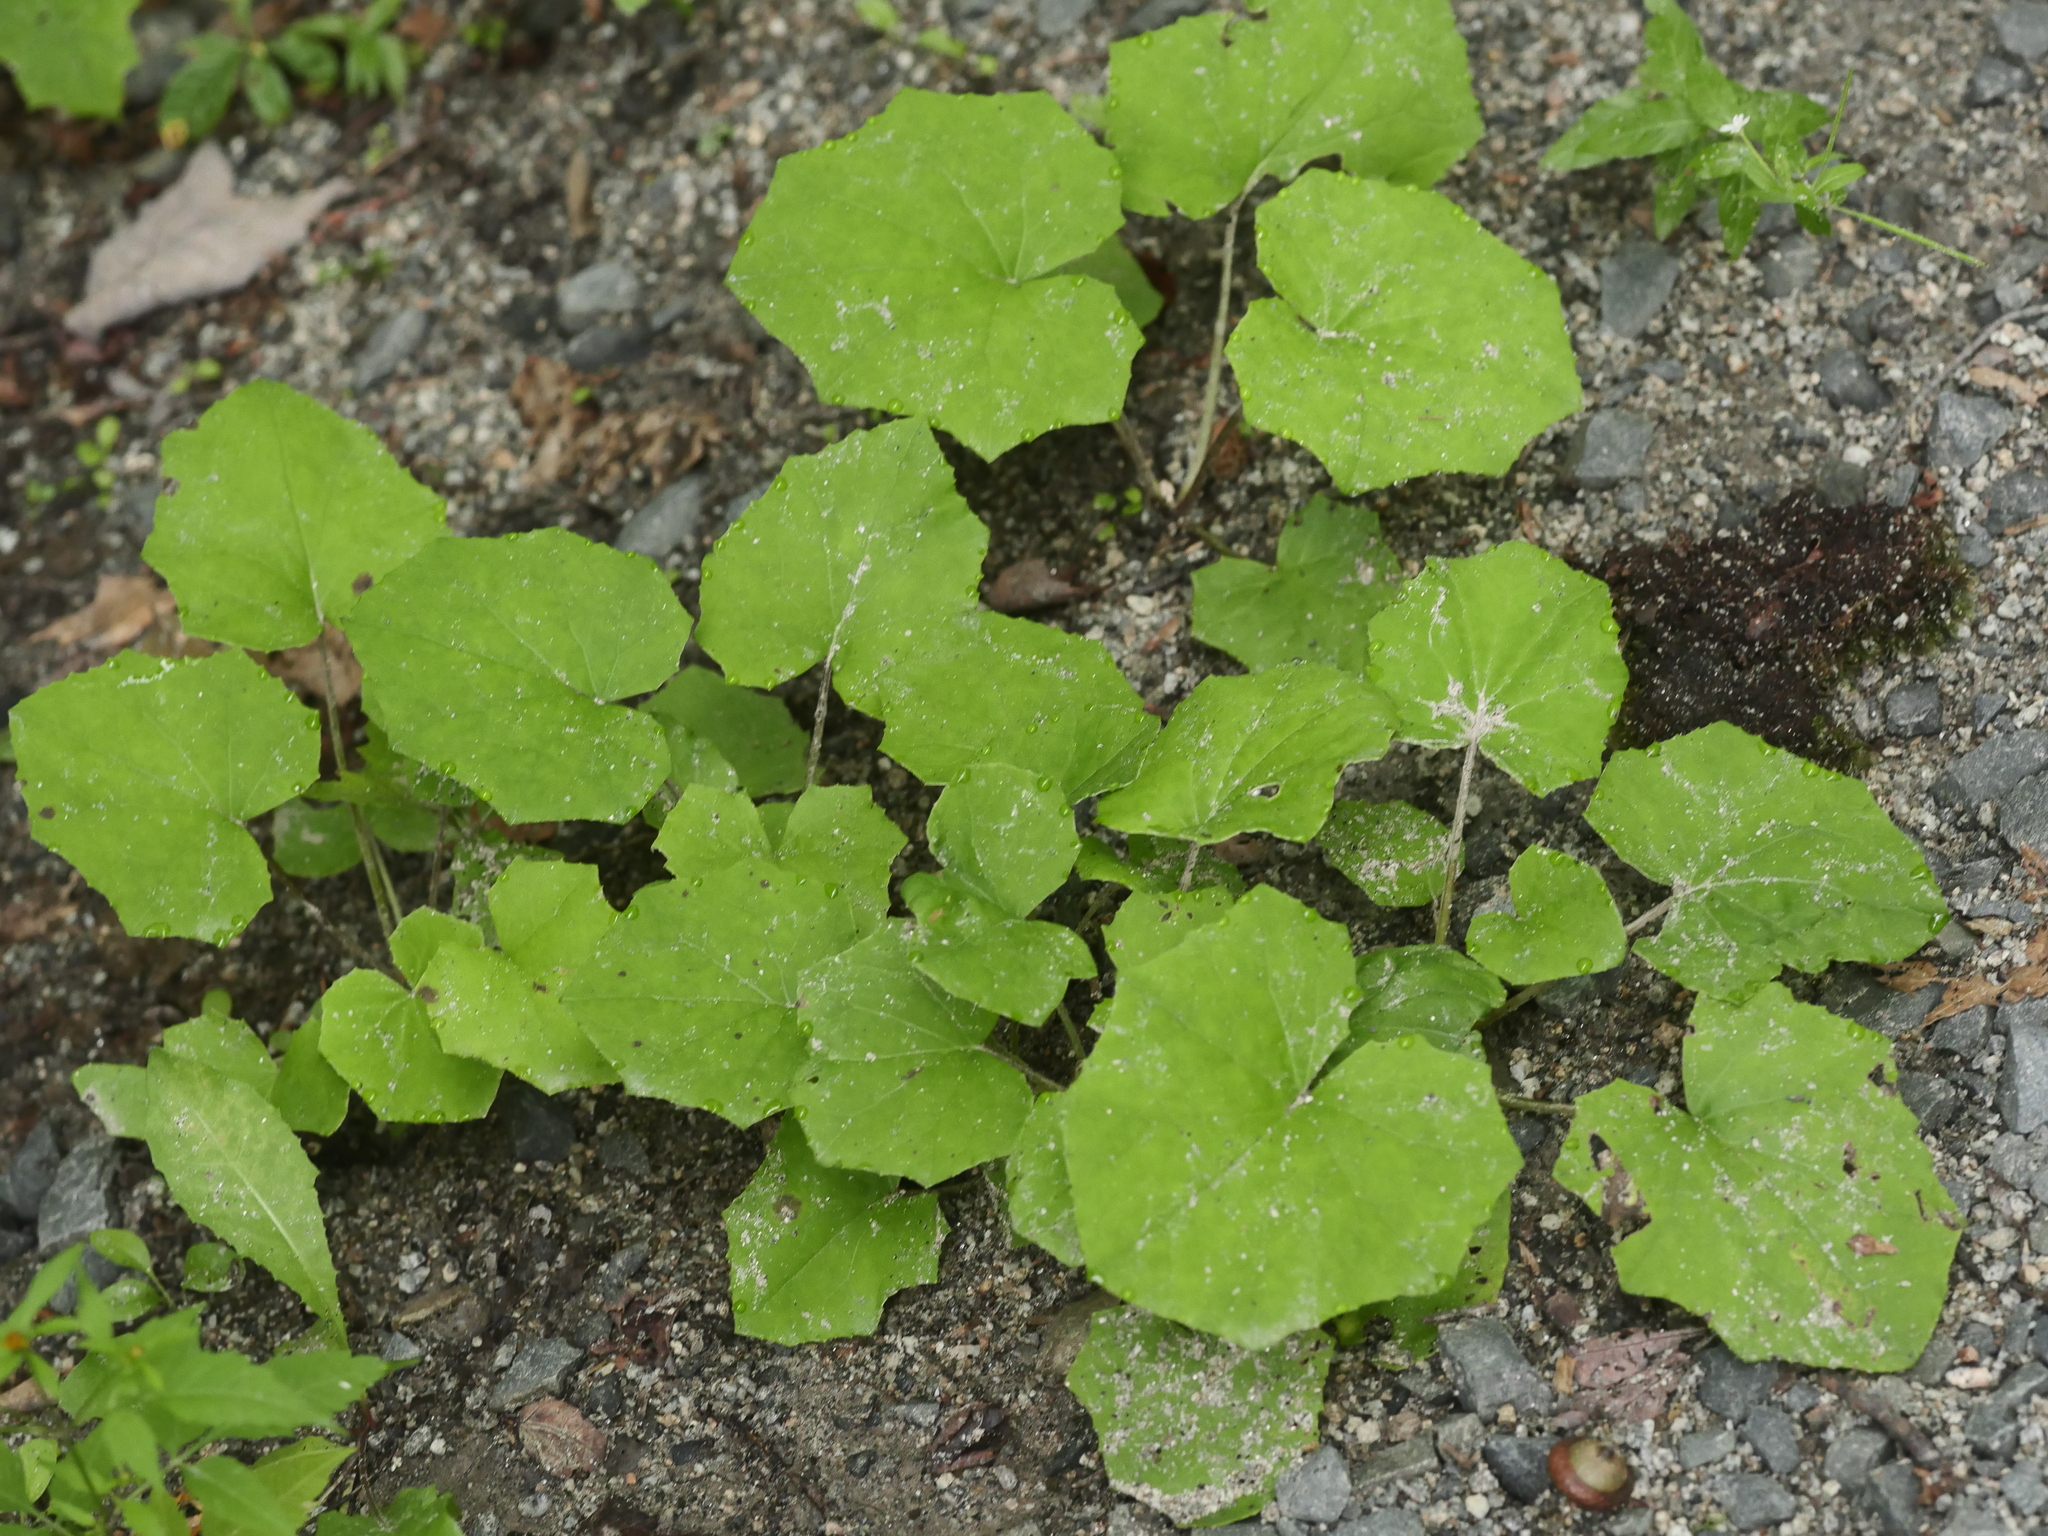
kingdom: Plantae
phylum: Tracheophyta
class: Magnoliopsida
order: Asterales
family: Asteraceae
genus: Tussilago
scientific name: Tussilago farfara
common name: Coltsfoot
